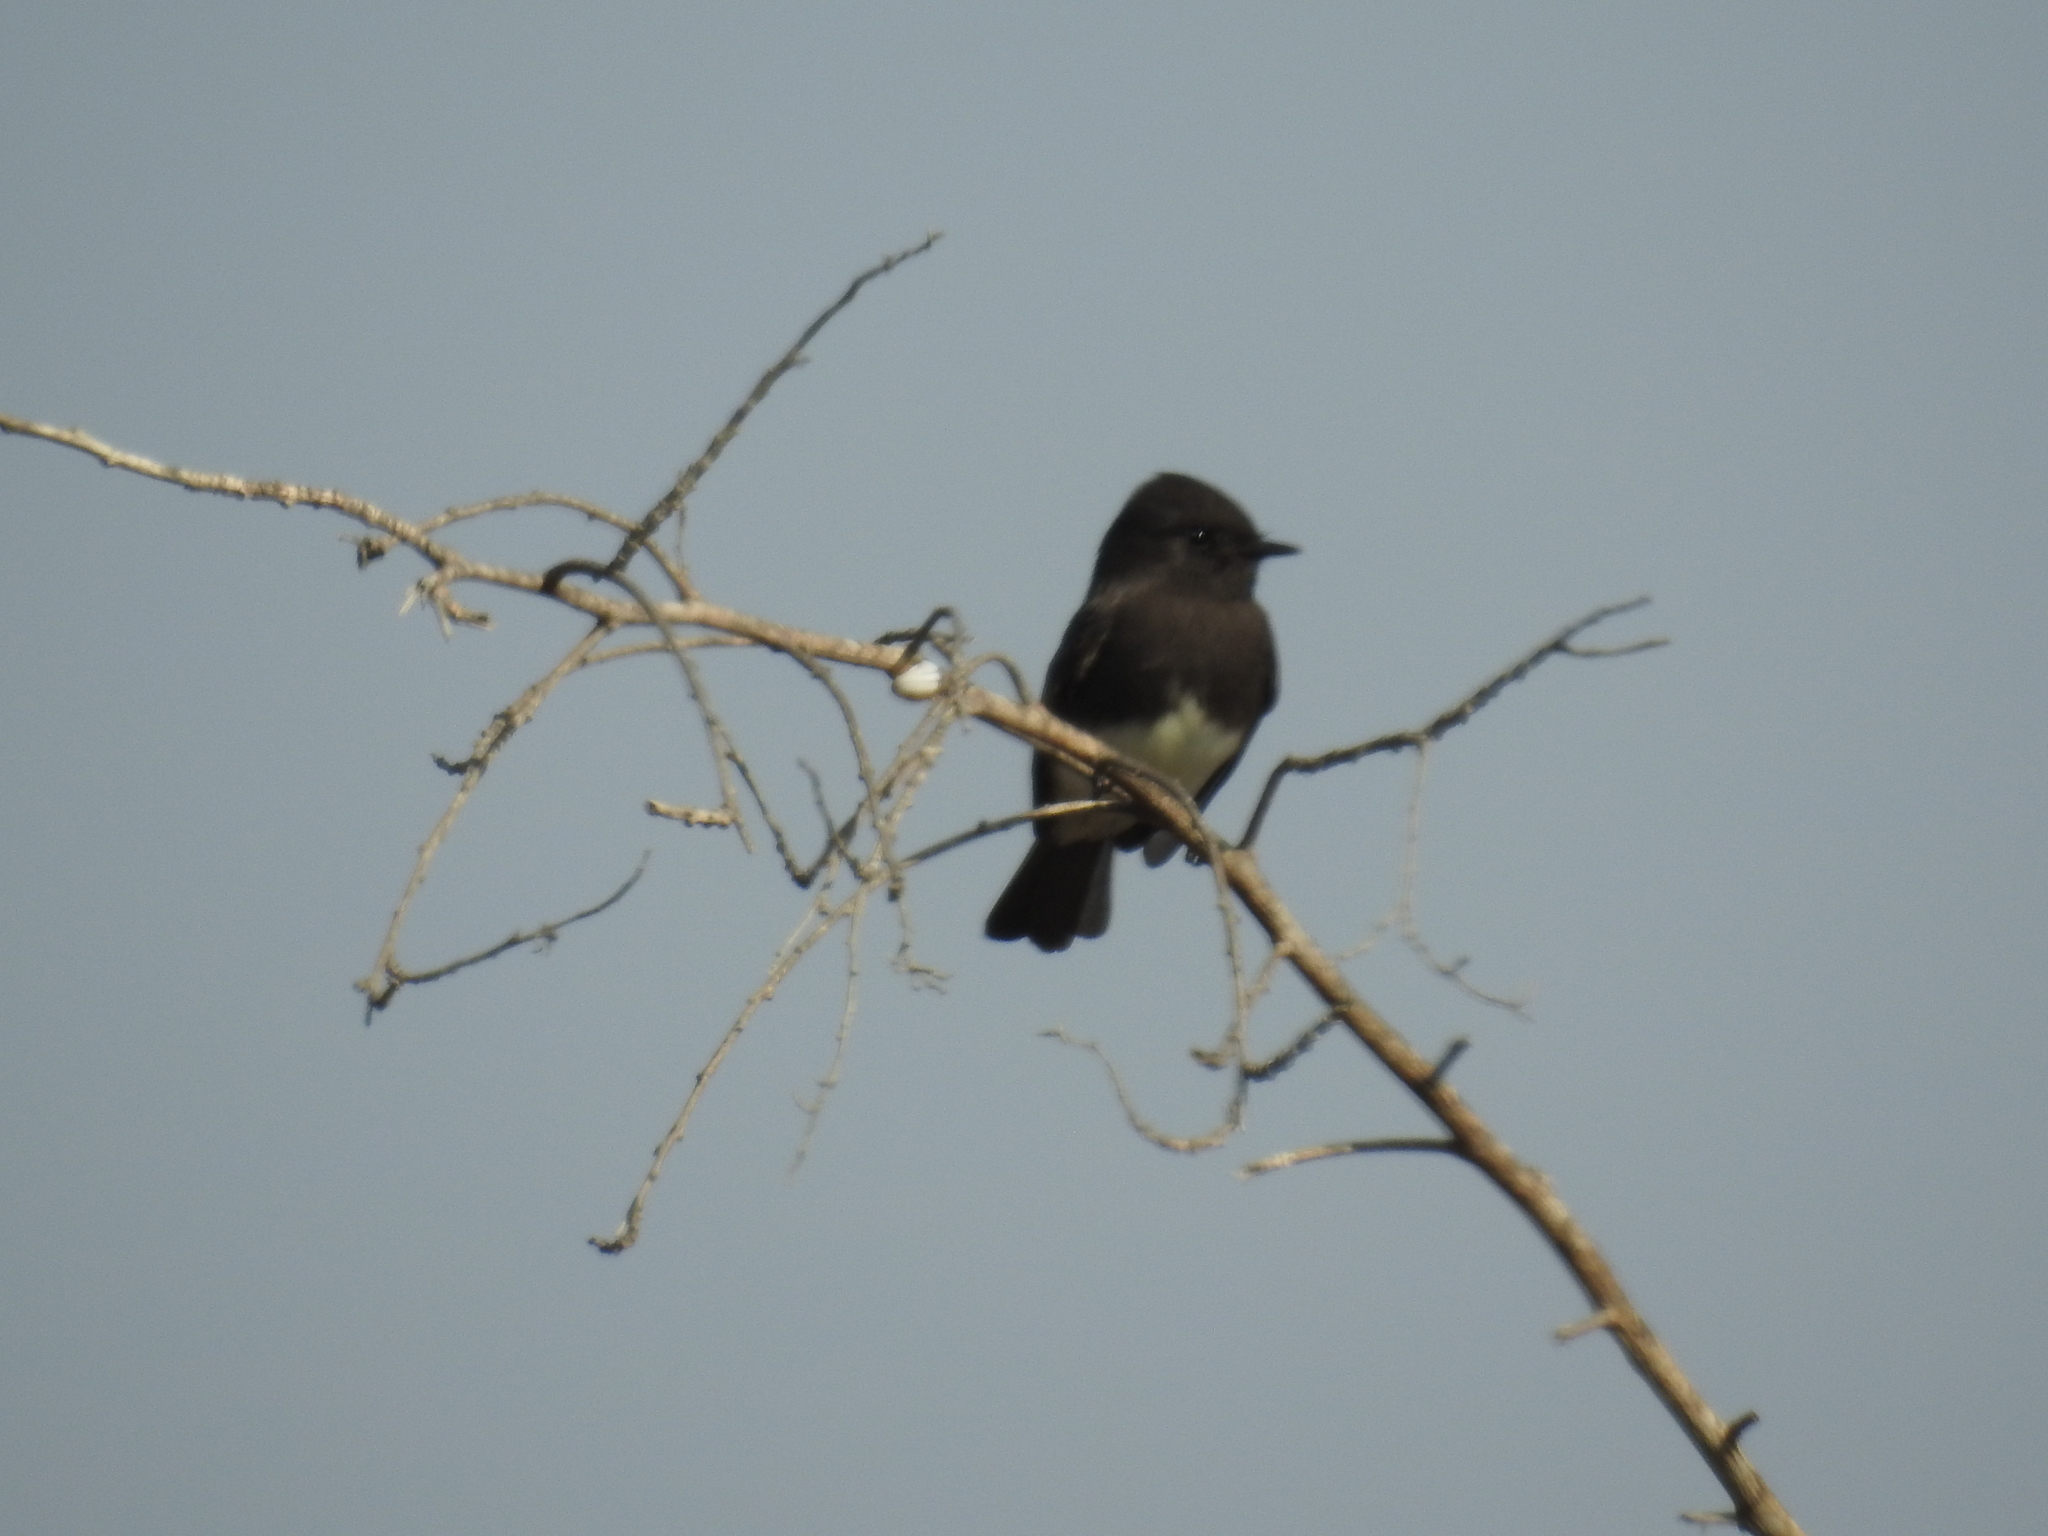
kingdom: Animalia
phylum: Chordata
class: Aves
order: Passeriformes
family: Tyrannidae
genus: Sayornis
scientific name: Sayornis nigricans
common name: Black phoebe
